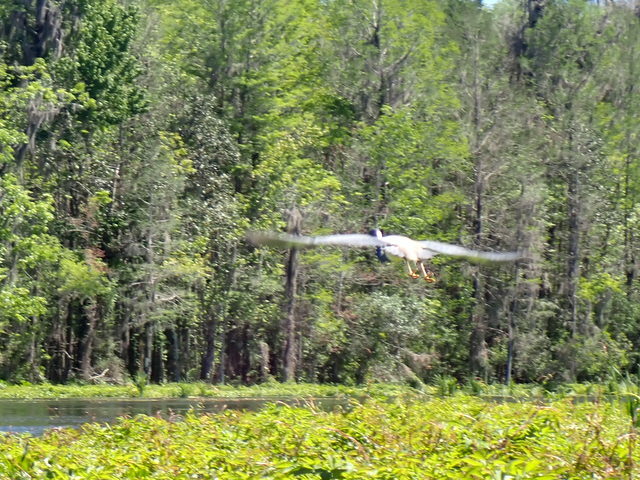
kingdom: Animalia
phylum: Chordata
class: Aves
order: Pelecaniformes
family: Ardeidae
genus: Egretta
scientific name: Egretta tricolor
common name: Tricolored heron
